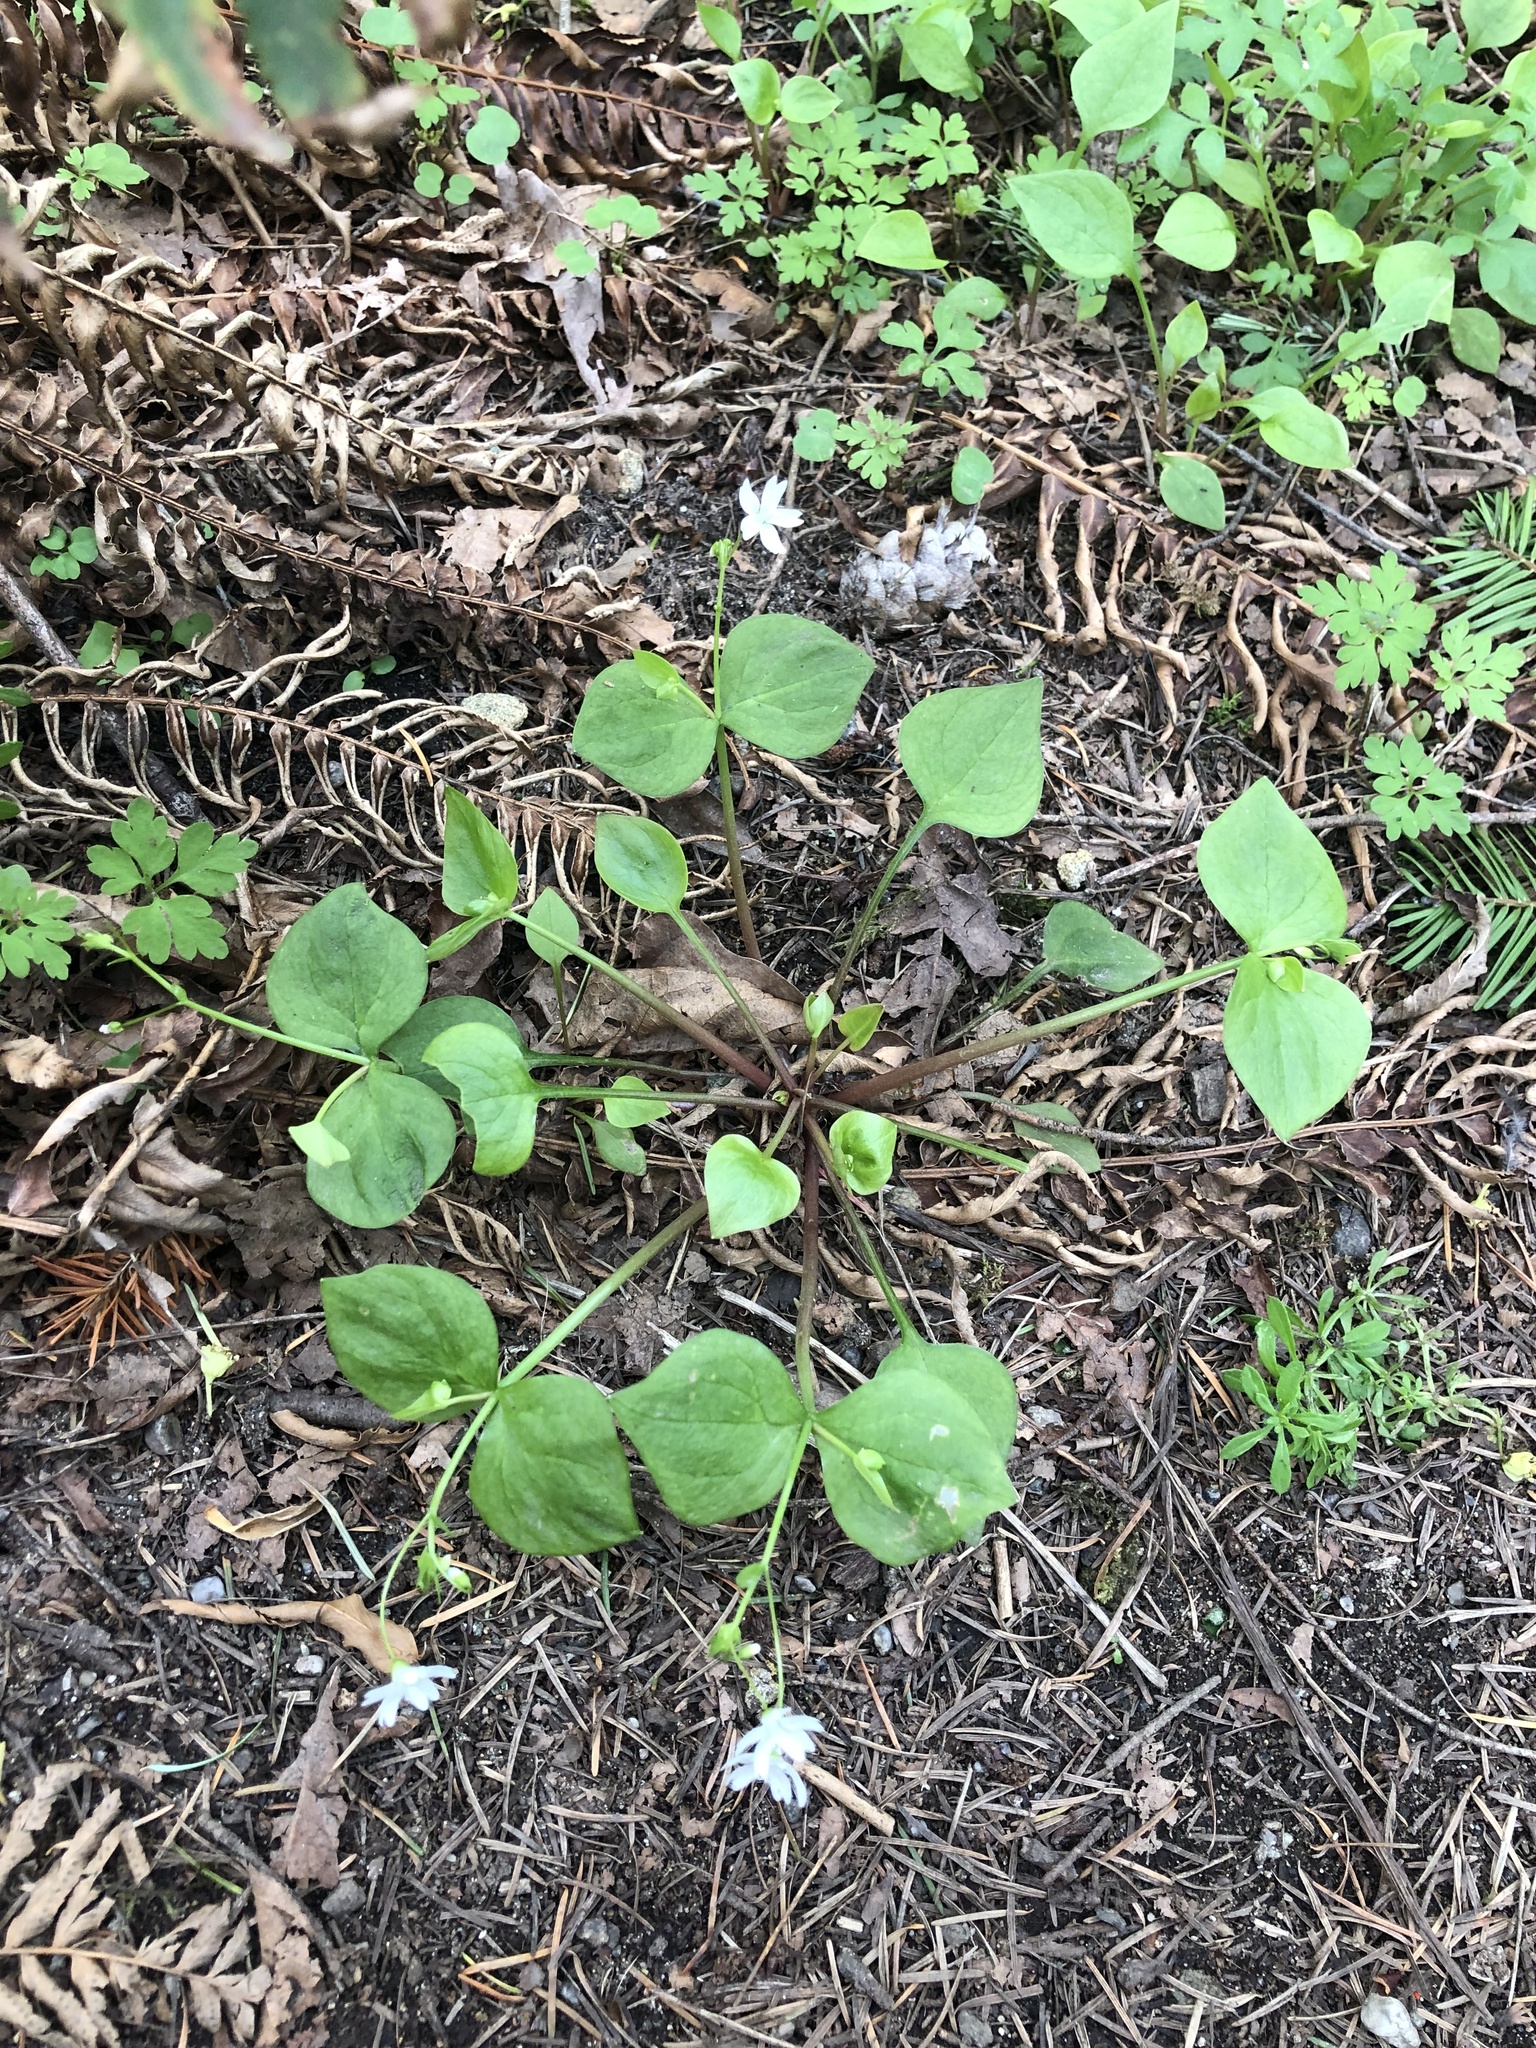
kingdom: Plantae
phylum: Tracheophyta
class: Magnoliopsida
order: Caryophyllales
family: Montiaceae
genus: Claytonia
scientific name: Claytonia sibirica
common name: Pink purslane
